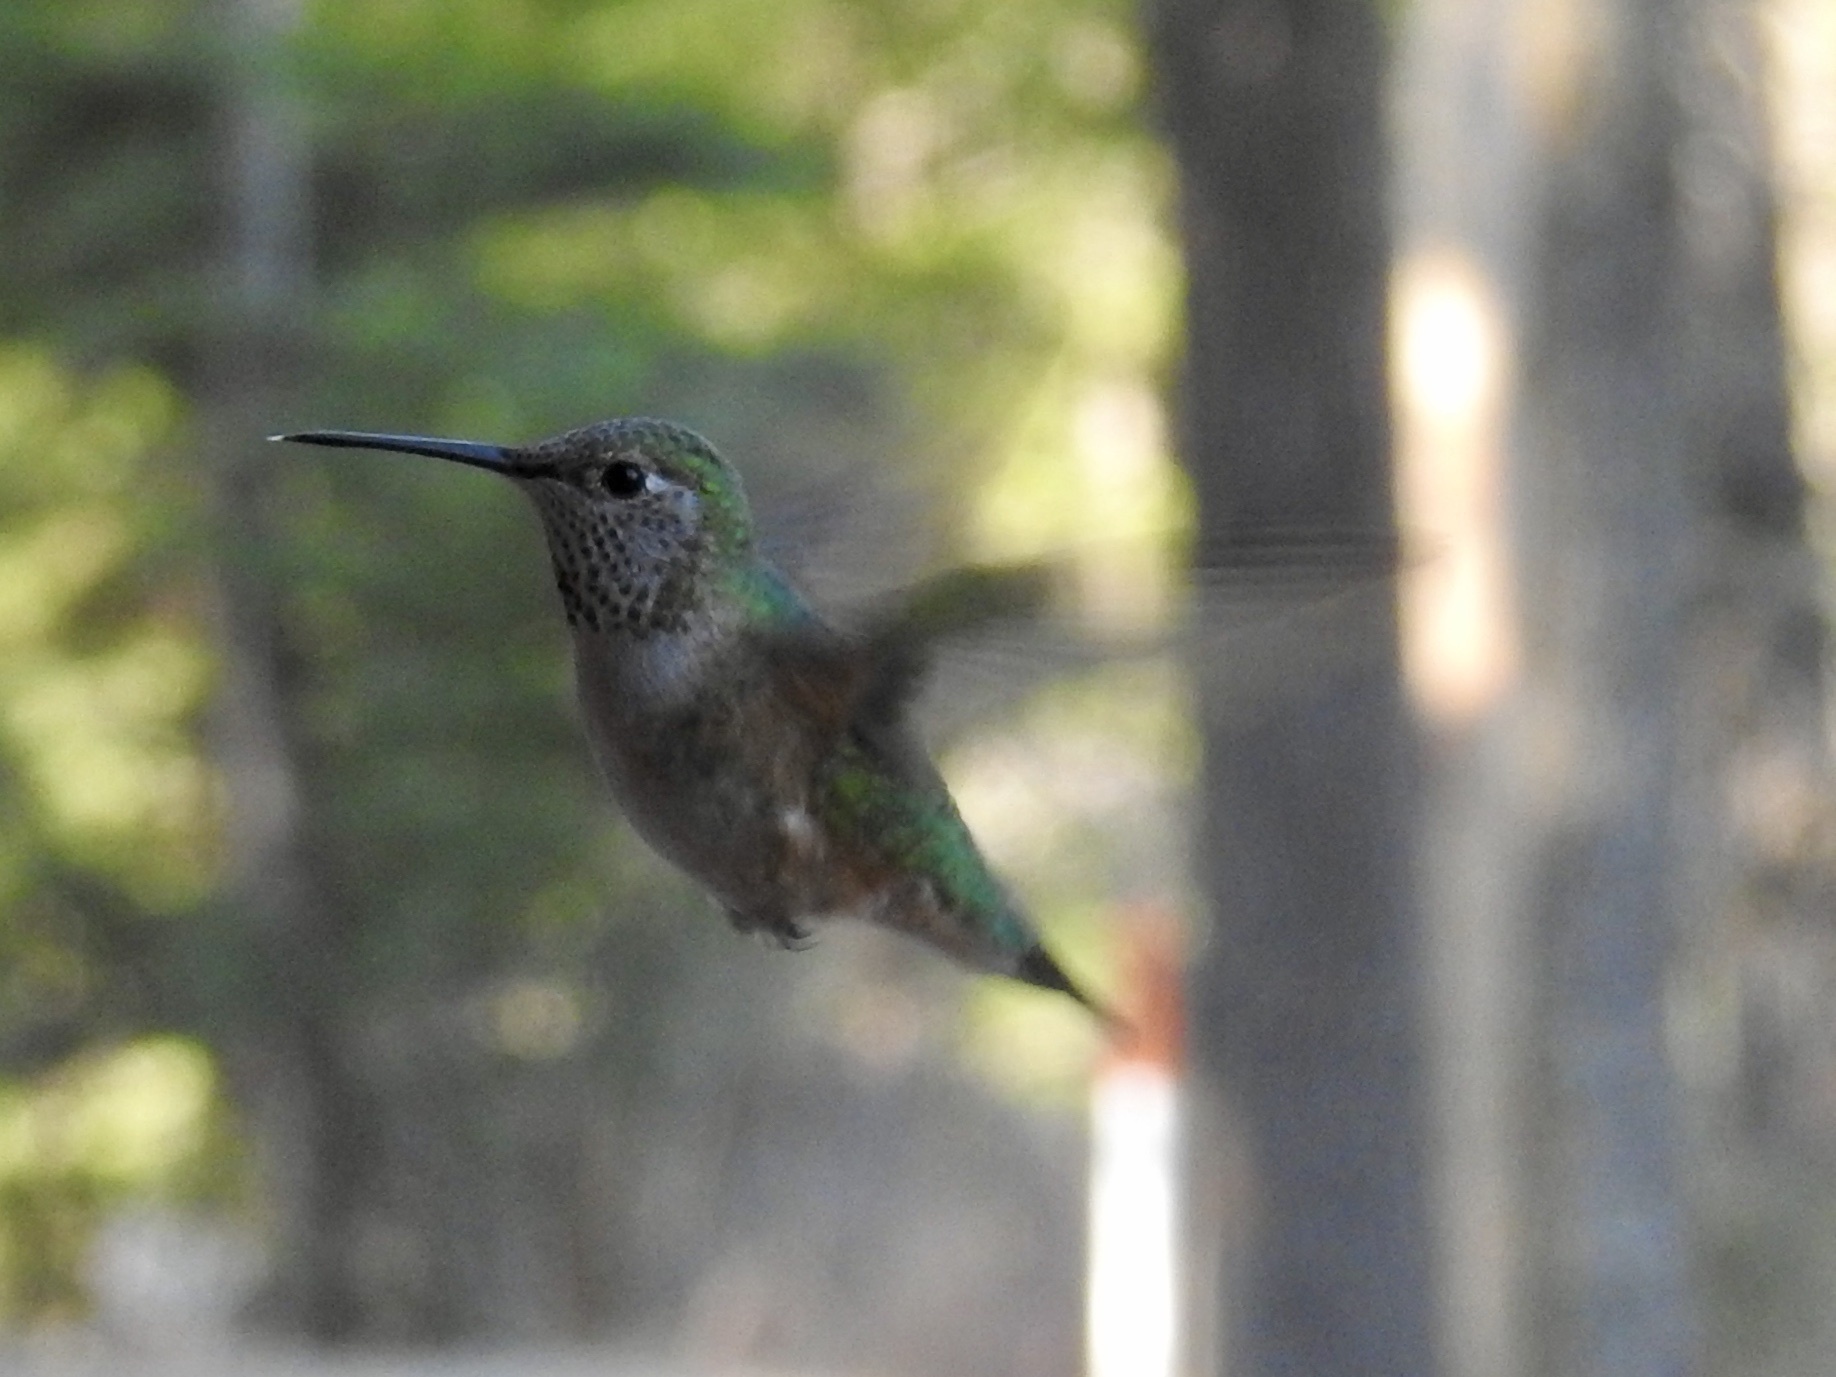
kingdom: Animalia
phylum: Chordata
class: Aves
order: Apodiformes
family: Trochilidae
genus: Selasphorus
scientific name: Selasphorus platycercus
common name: Broad-tailed hummingbird
